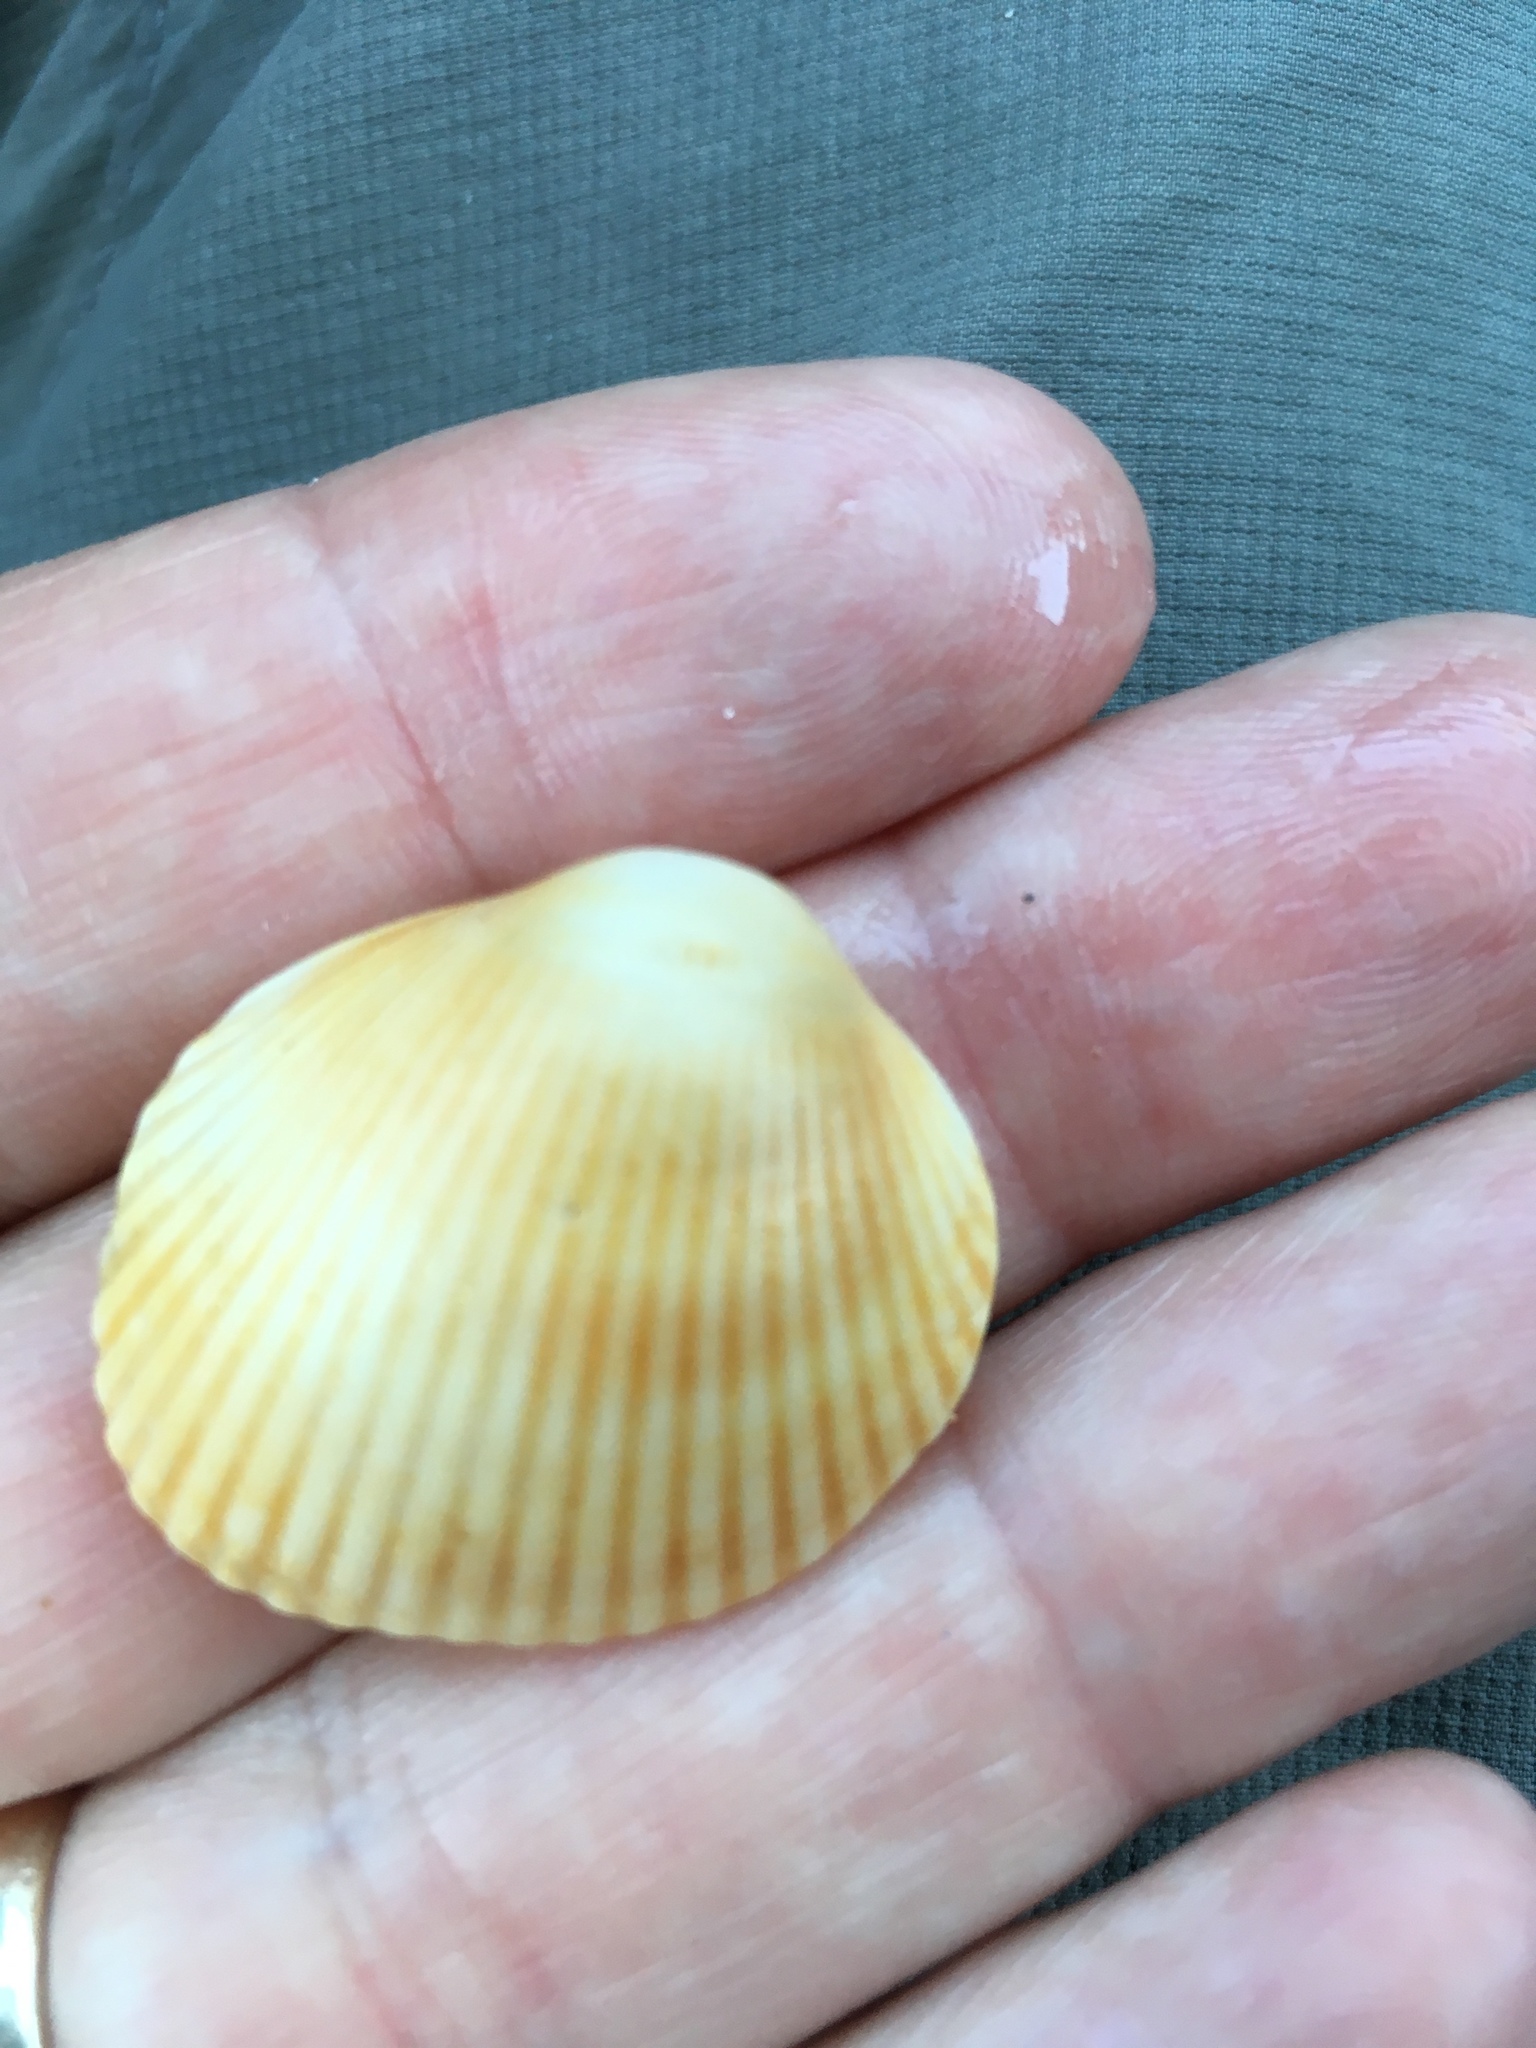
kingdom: Animalia
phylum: Mollusca
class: Bivalvia
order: Arcida
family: Arcidae
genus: Lunarca
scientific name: Lunarca ovalis
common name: Blood ark
